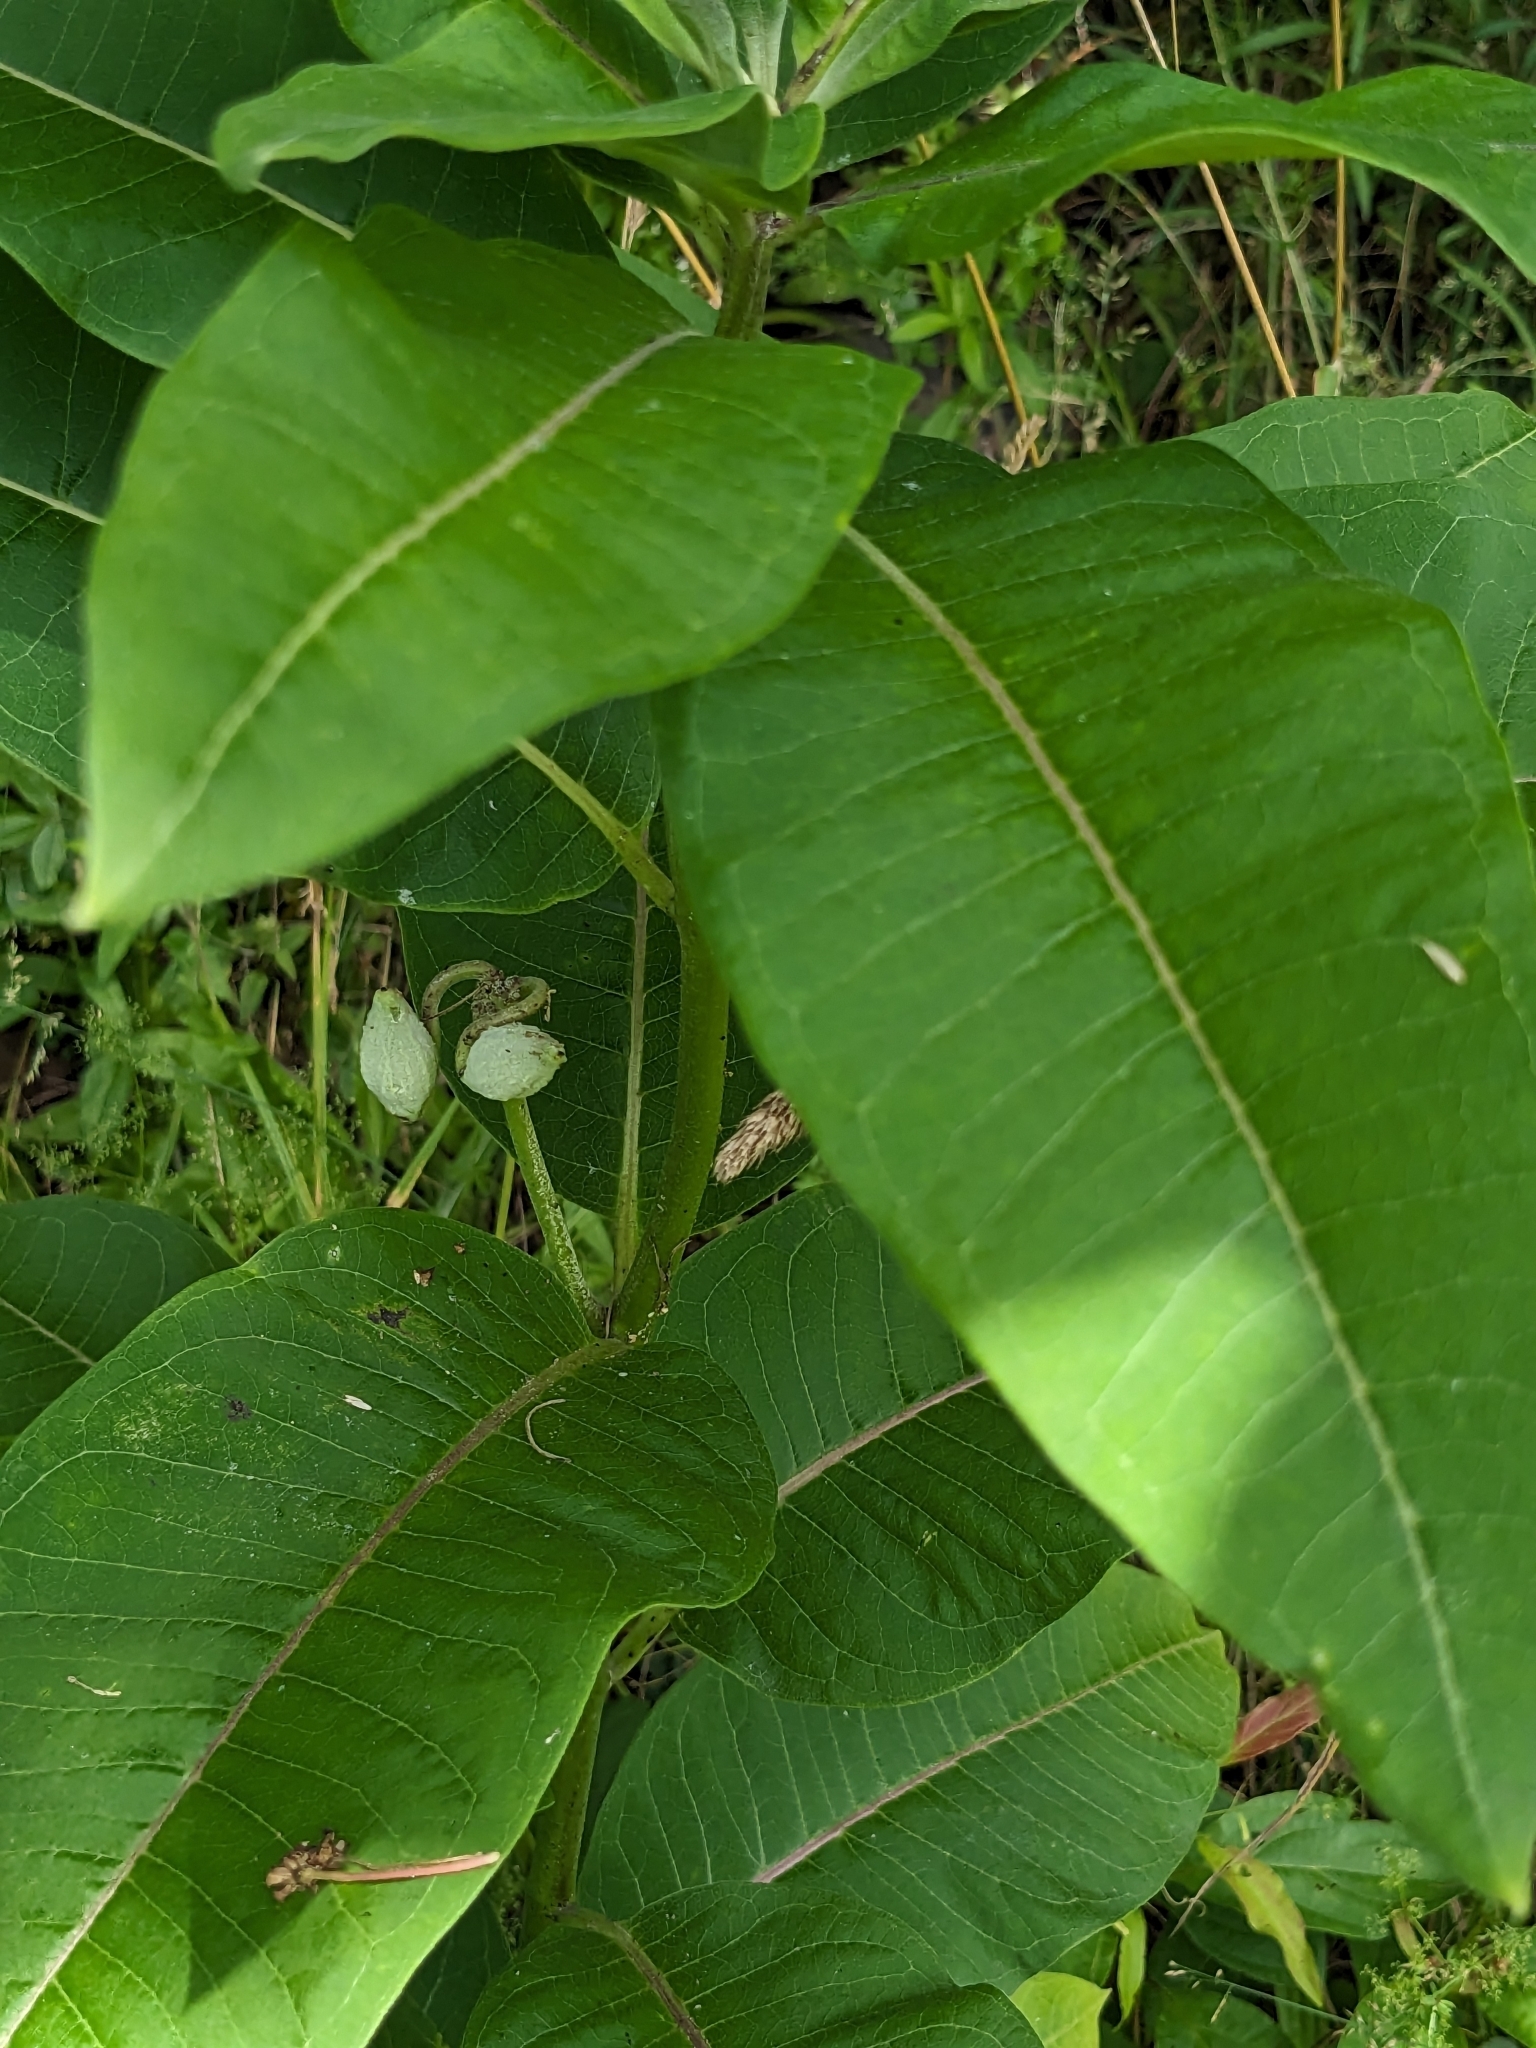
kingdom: Plantae
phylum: Tracheophyta
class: Magnoliopsida
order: Gentianales
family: Apocynaceae
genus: Asclepias
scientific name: Asclepias syriaca
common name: Common milkweed
